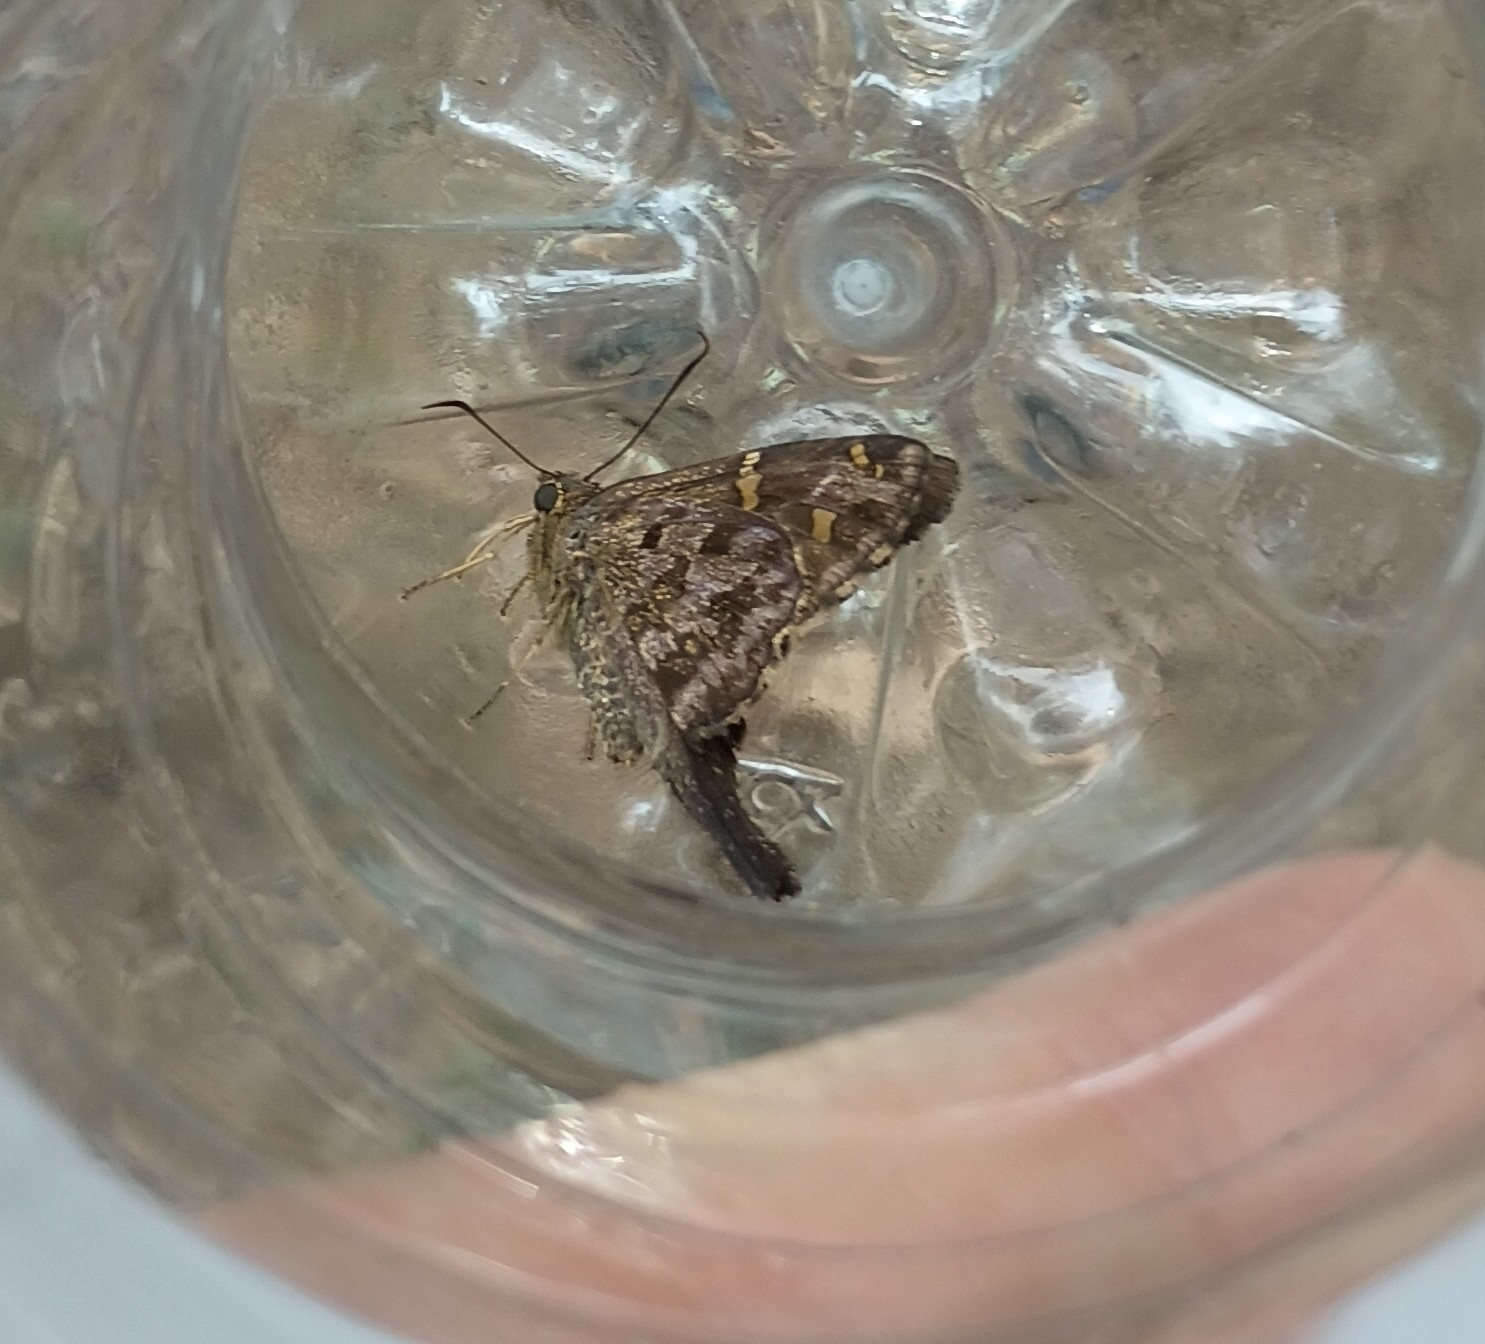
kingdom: Animalia
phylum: Arthropoda
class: Insecta
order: Lepidoptera
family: Hesperiidae
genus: Thorybes
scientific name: Thorybes
